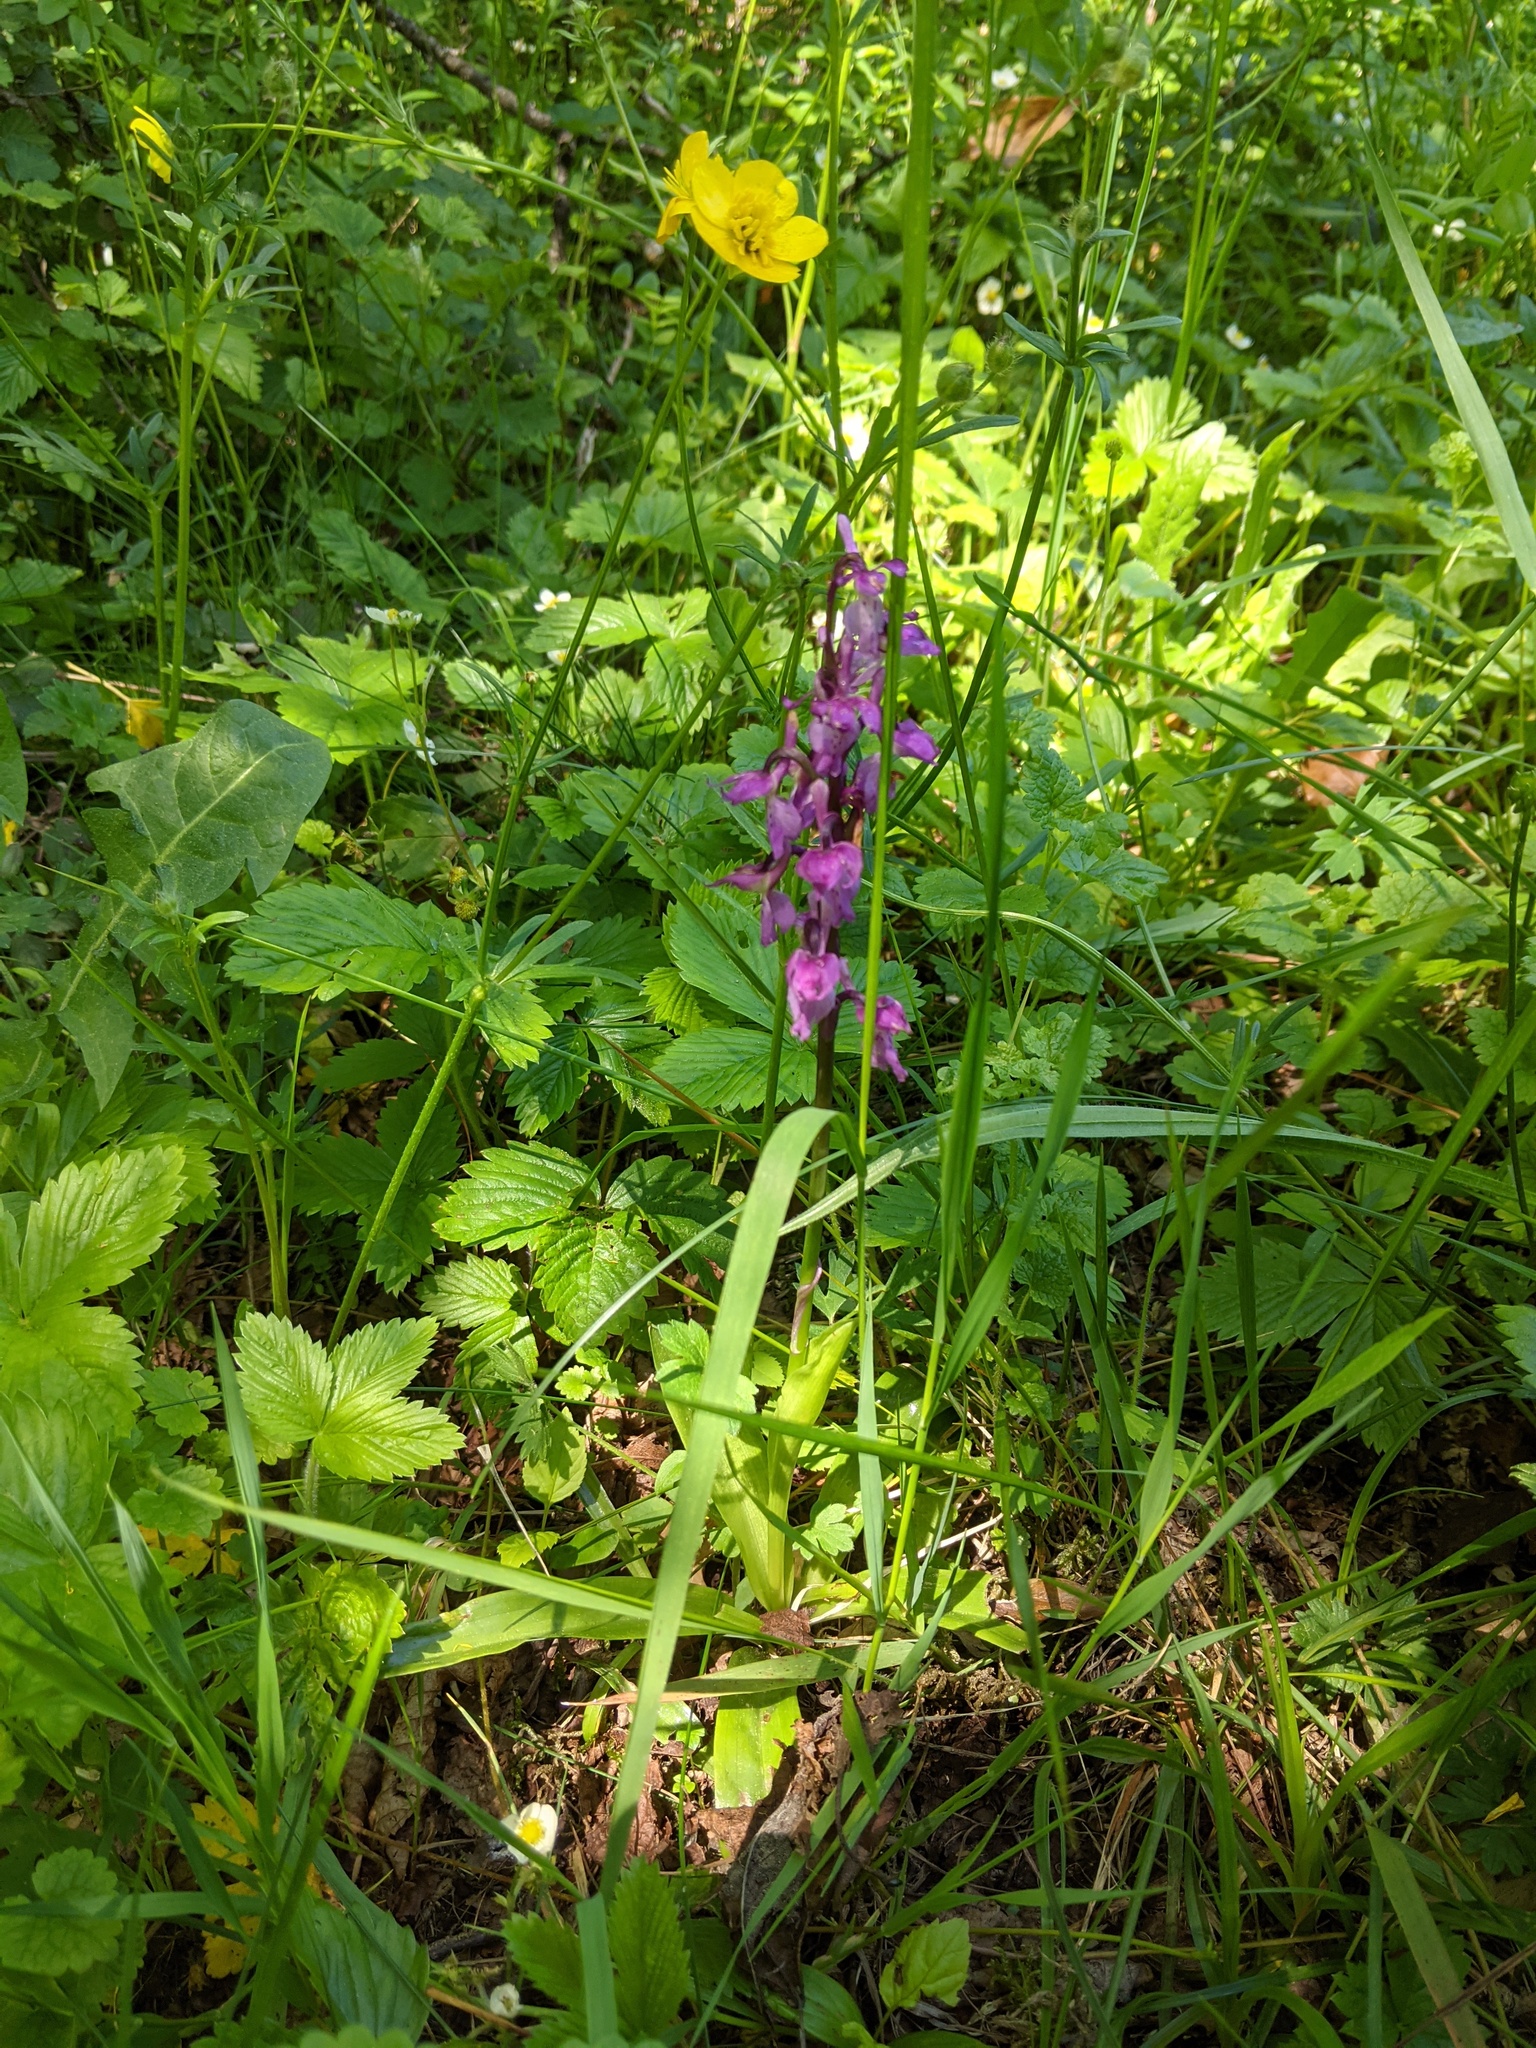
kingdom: Plantae
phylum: Tracheophyta
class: Liliopsida
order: Asparagales
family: Orchidaceae
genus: Orchis
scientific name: Orchis mascula
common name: Early-purple orchid
